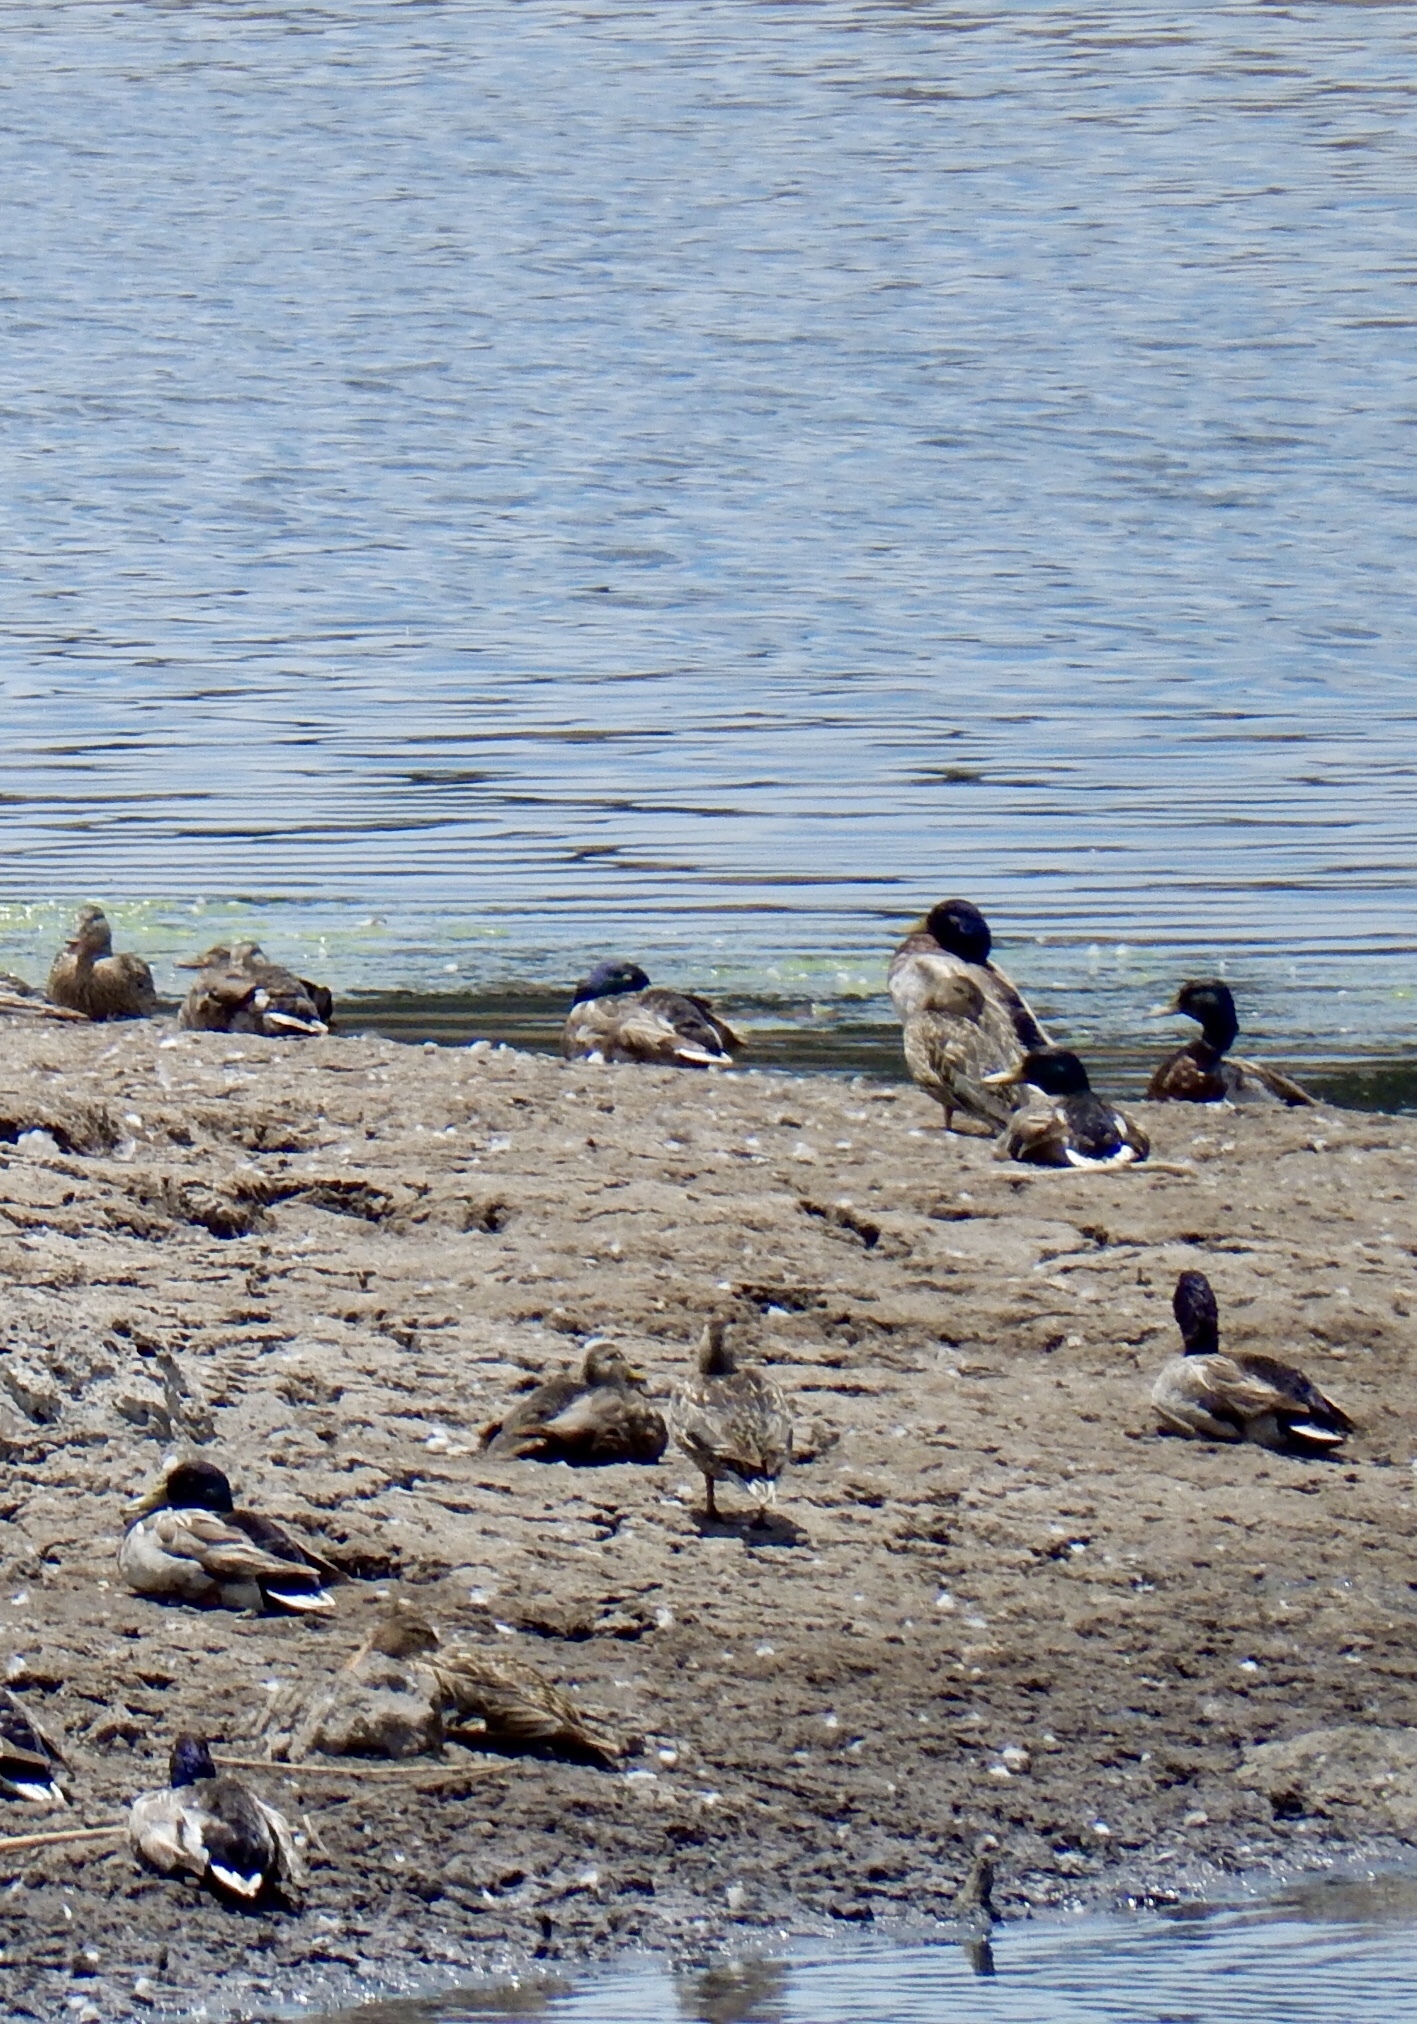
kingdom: Animalia
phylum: Chordata
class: Aves
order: Anseriformes
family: Anatidae
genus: Anas
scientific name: Anas platyrhynchos
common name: Mallard
